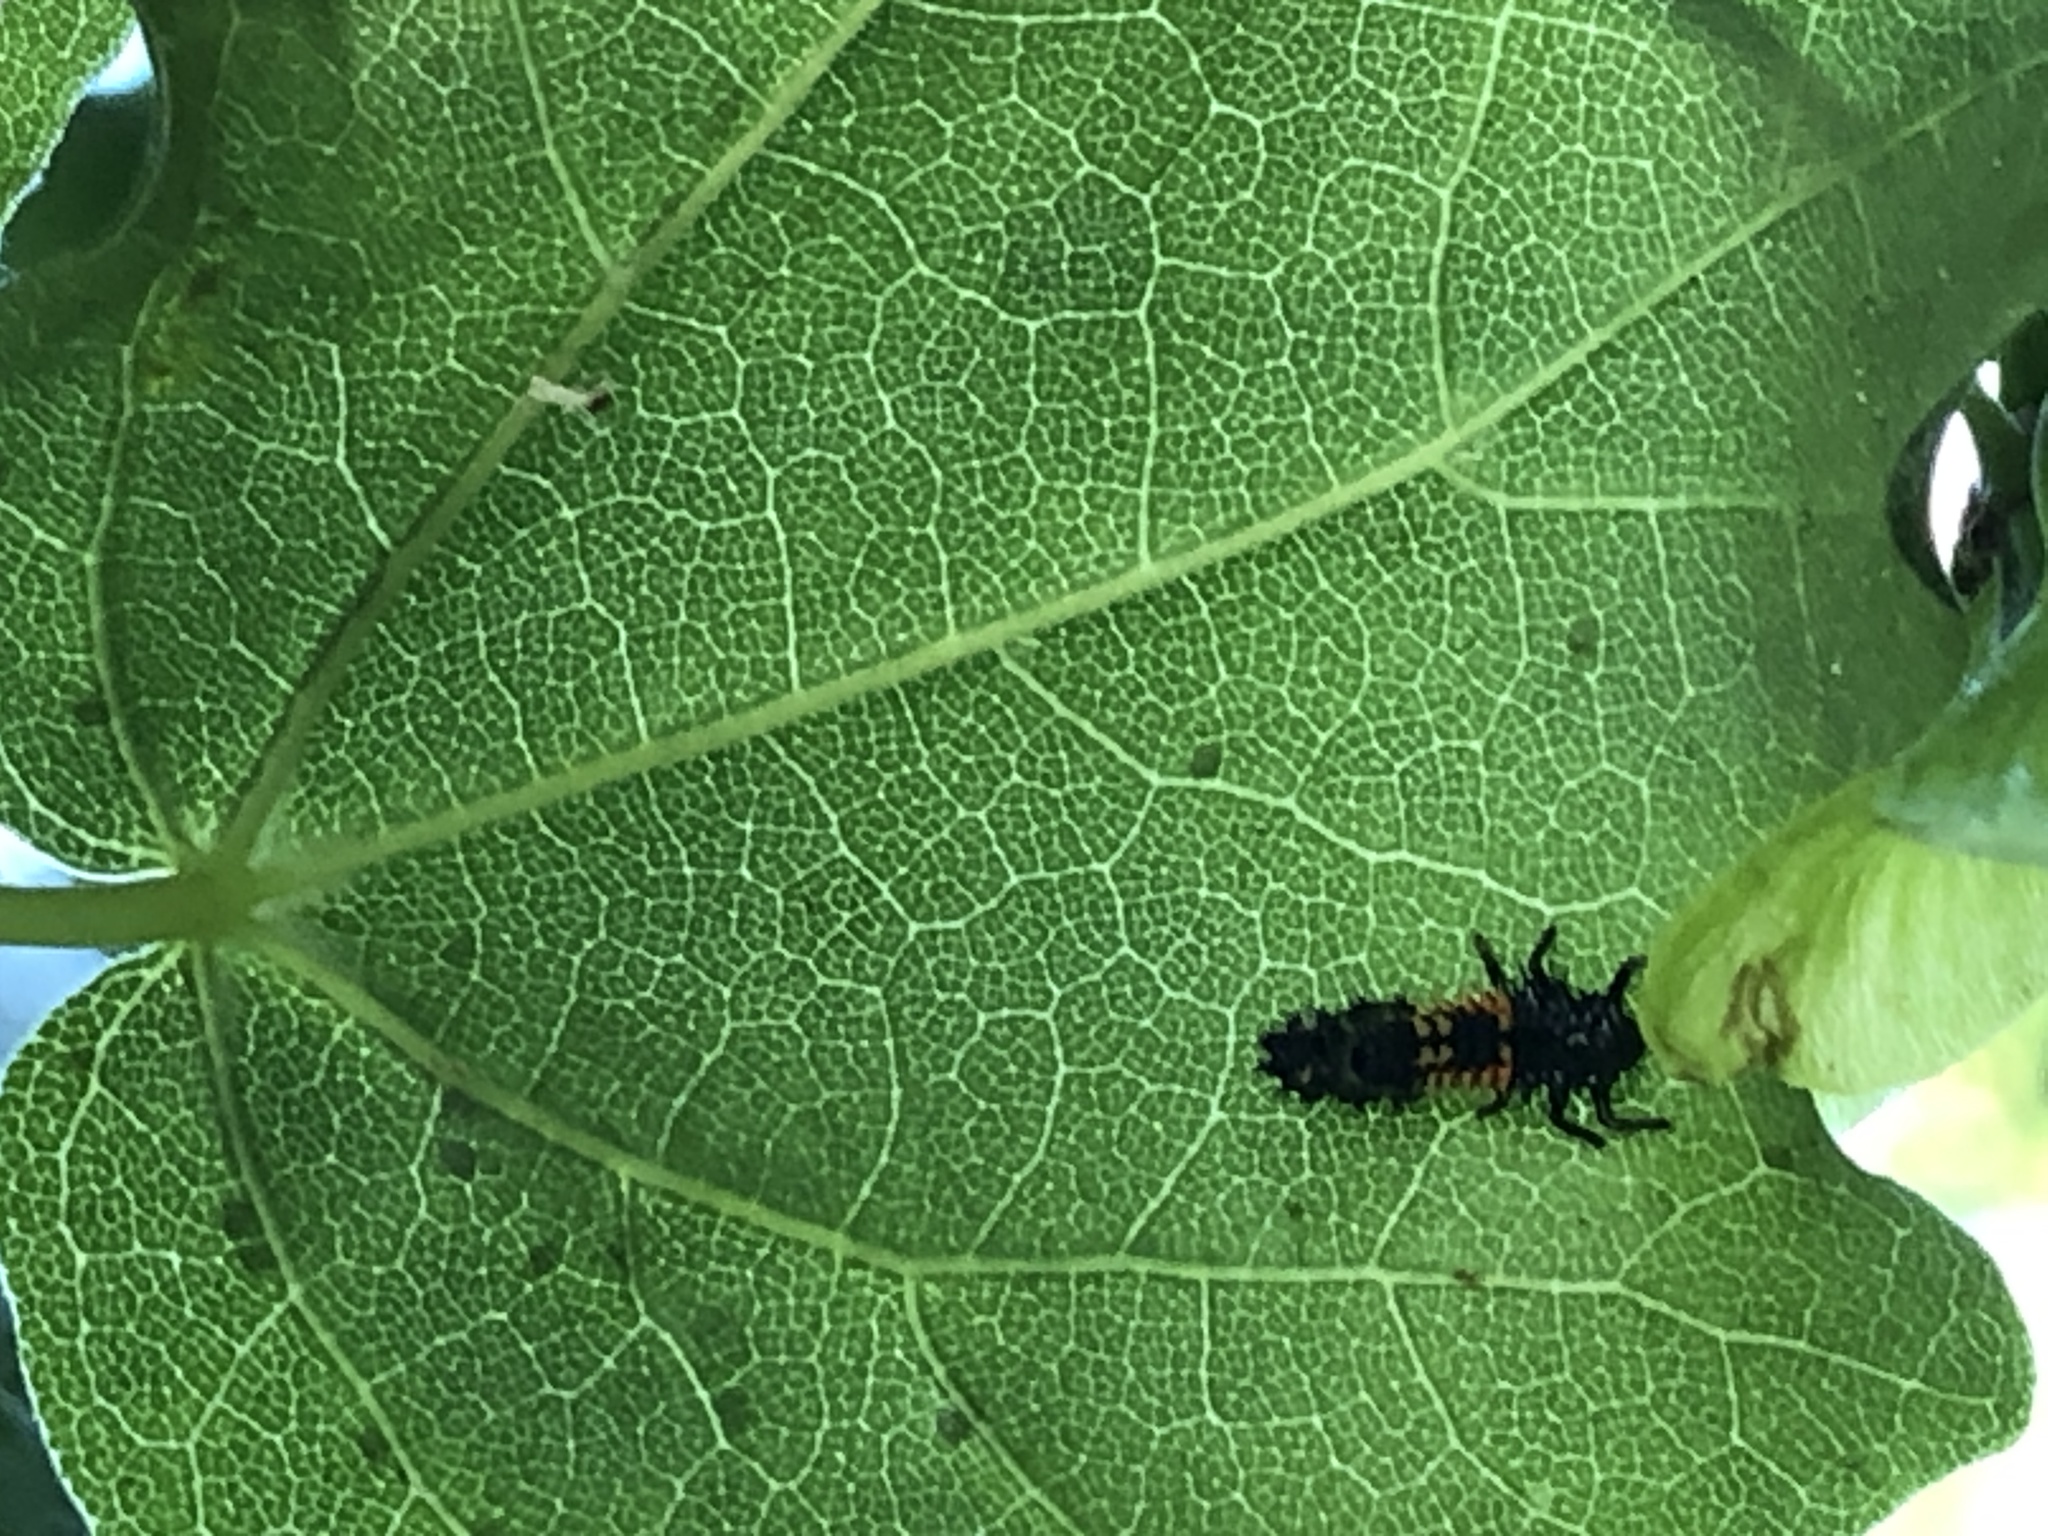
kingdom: Animalia
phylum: Arthropoda
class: Insecta
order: Coleoptera
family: Coccinellidae
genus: Harmonia
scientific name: Harmonia axyridis
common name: Harlequin ladybird
